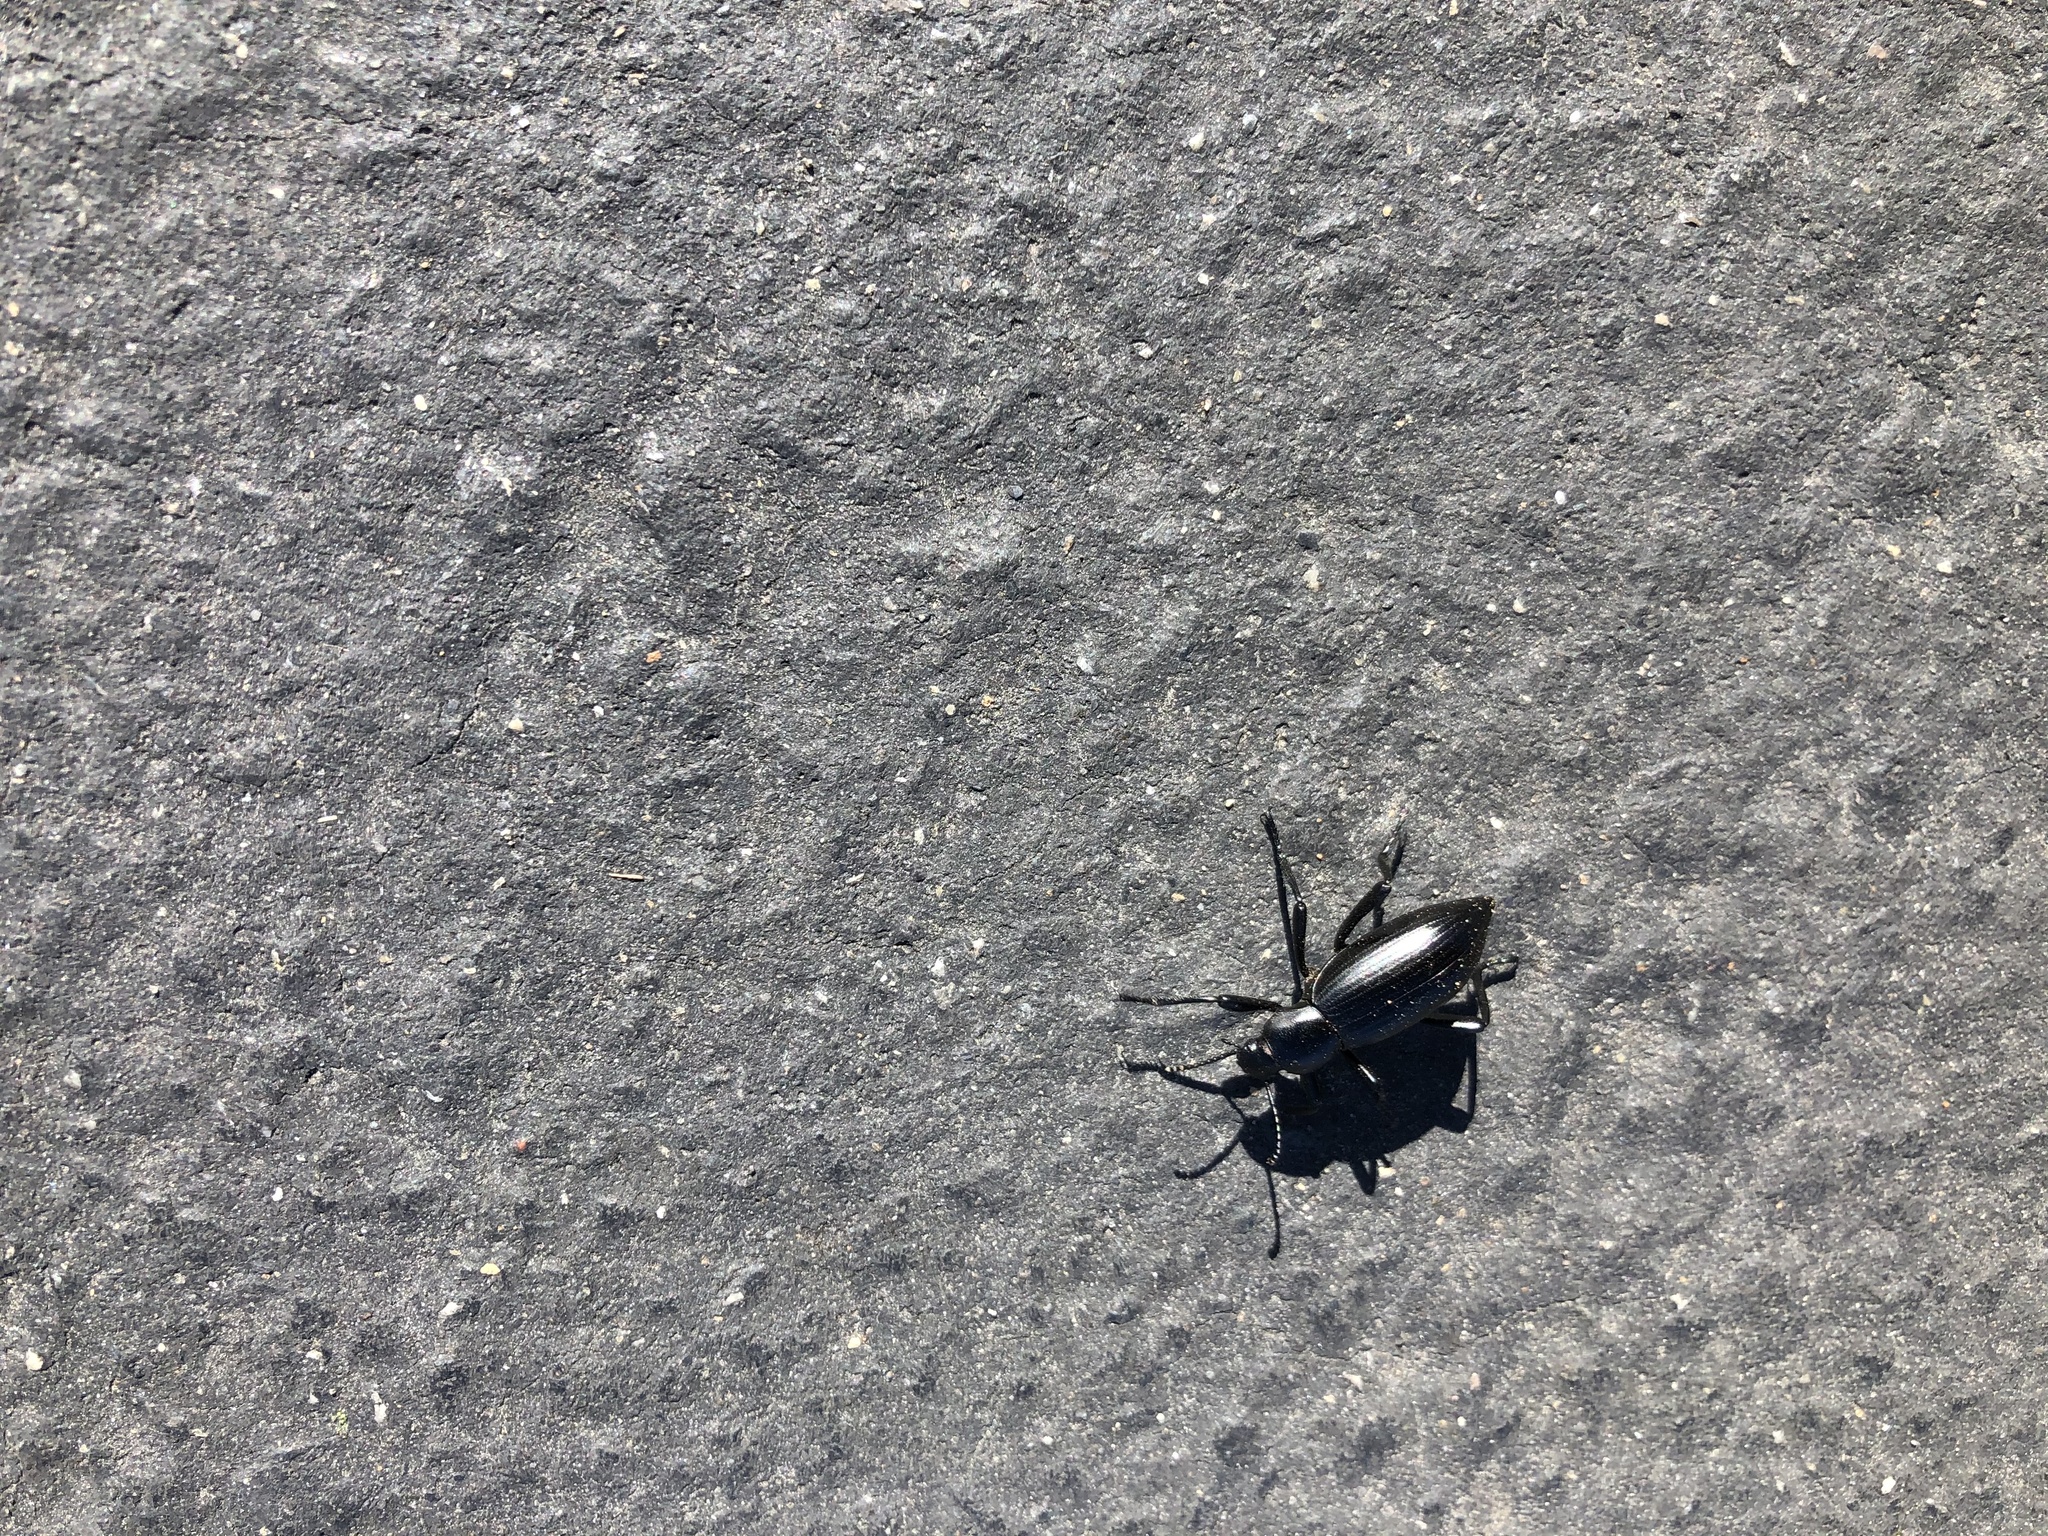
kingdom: Animalia
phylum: Arthropoda
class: Insecta
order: Coleoptera
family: Tenebrionidae
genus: Eleodes
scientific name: Eleodes gracilis
